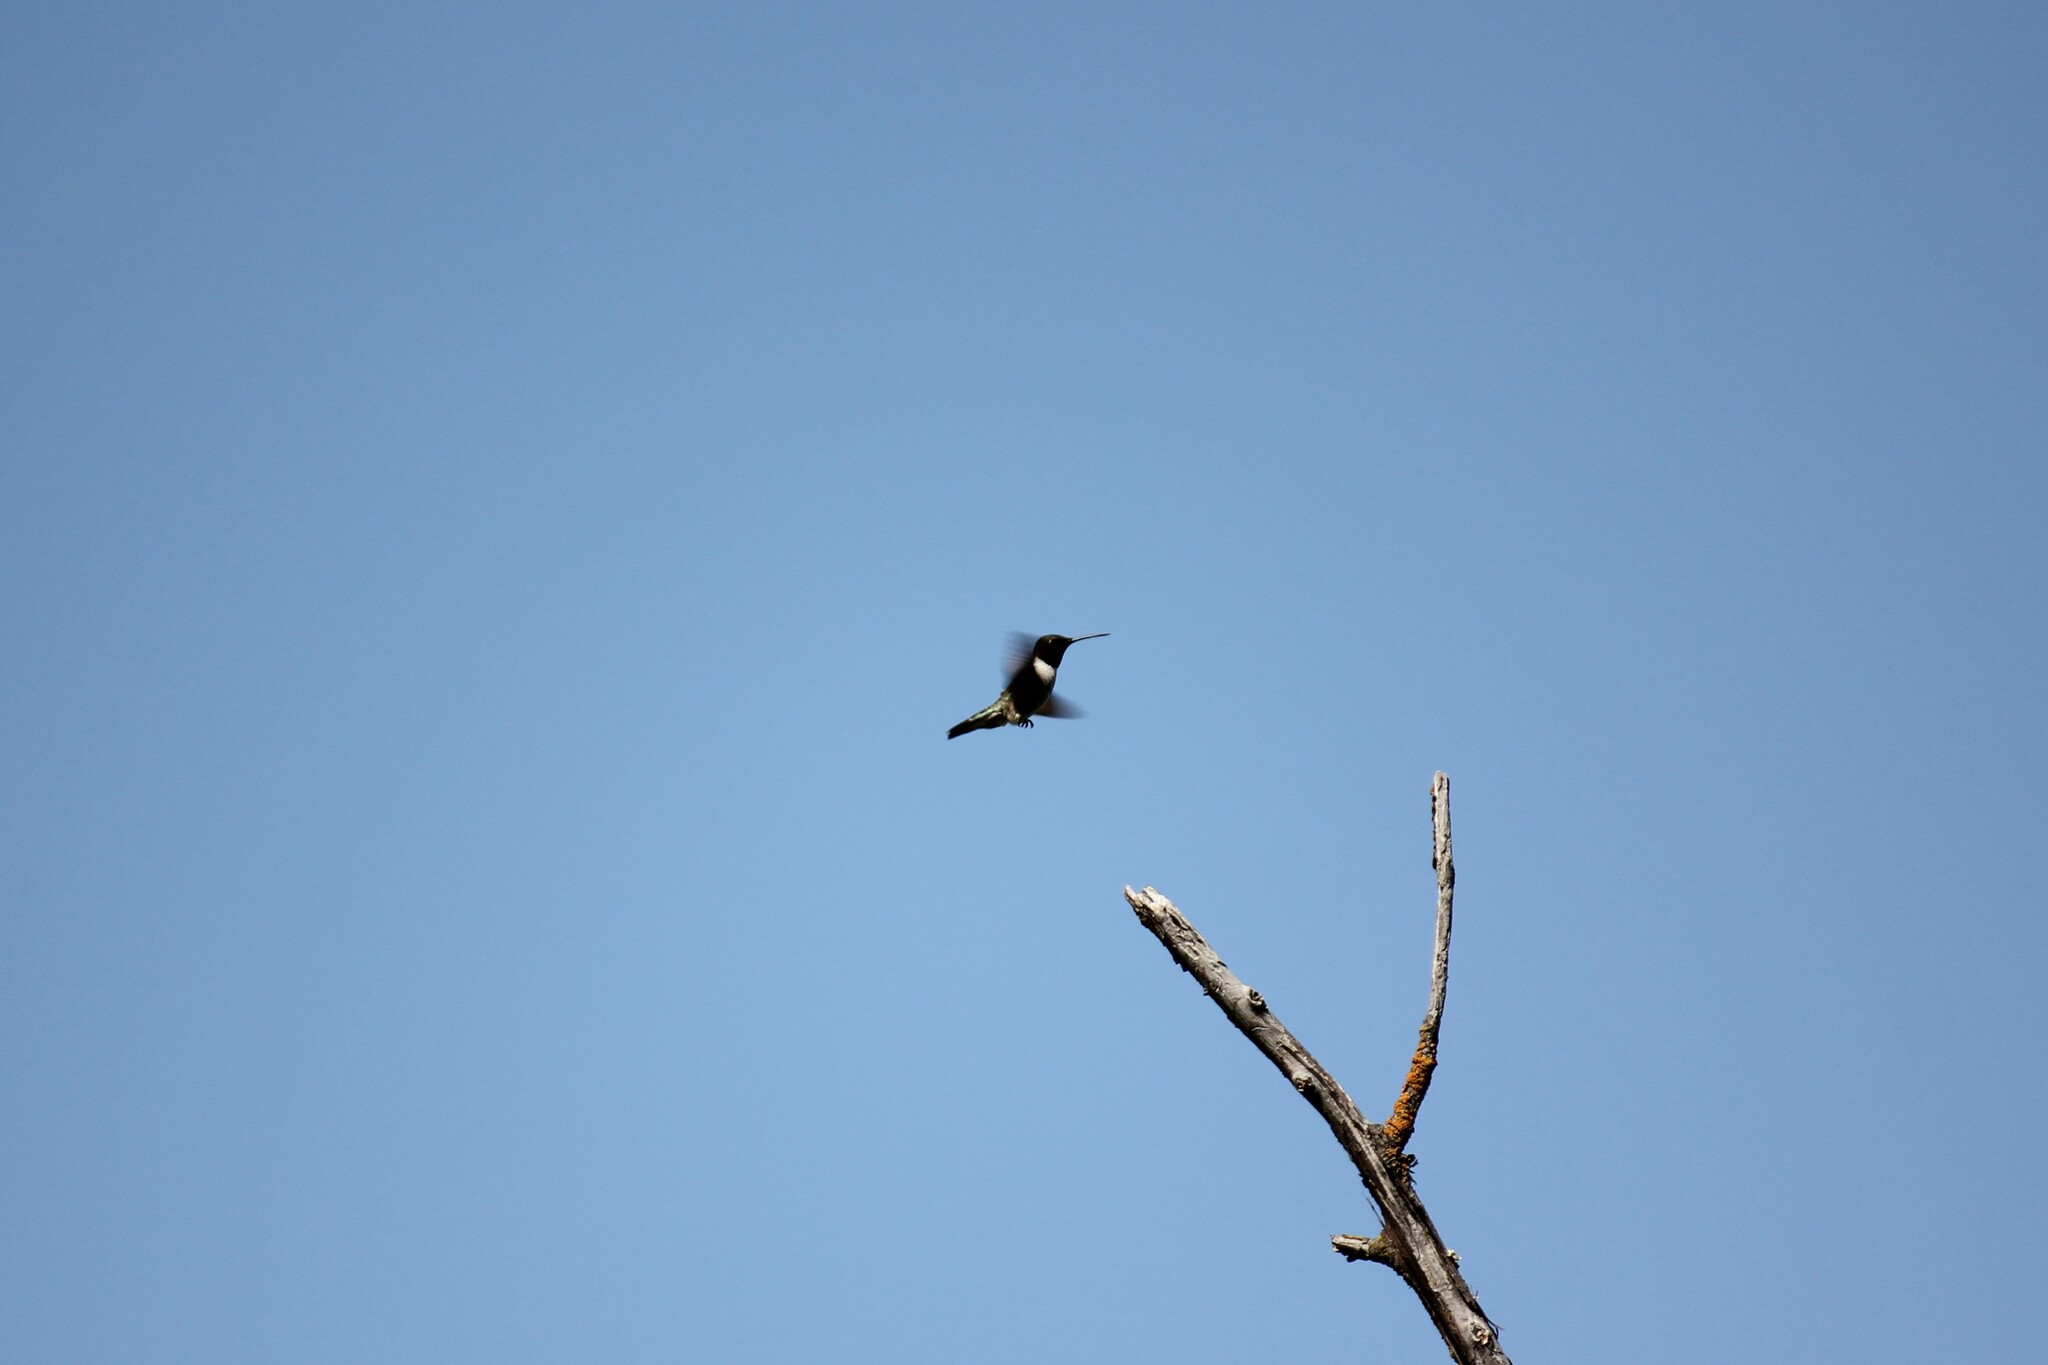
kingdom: Animalia
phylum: Chordata
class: Aves
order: Apodiformes
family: Trochilidae
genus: Archilochus
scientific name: Archilochus alexandri
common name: Black-chinned hummingbird
